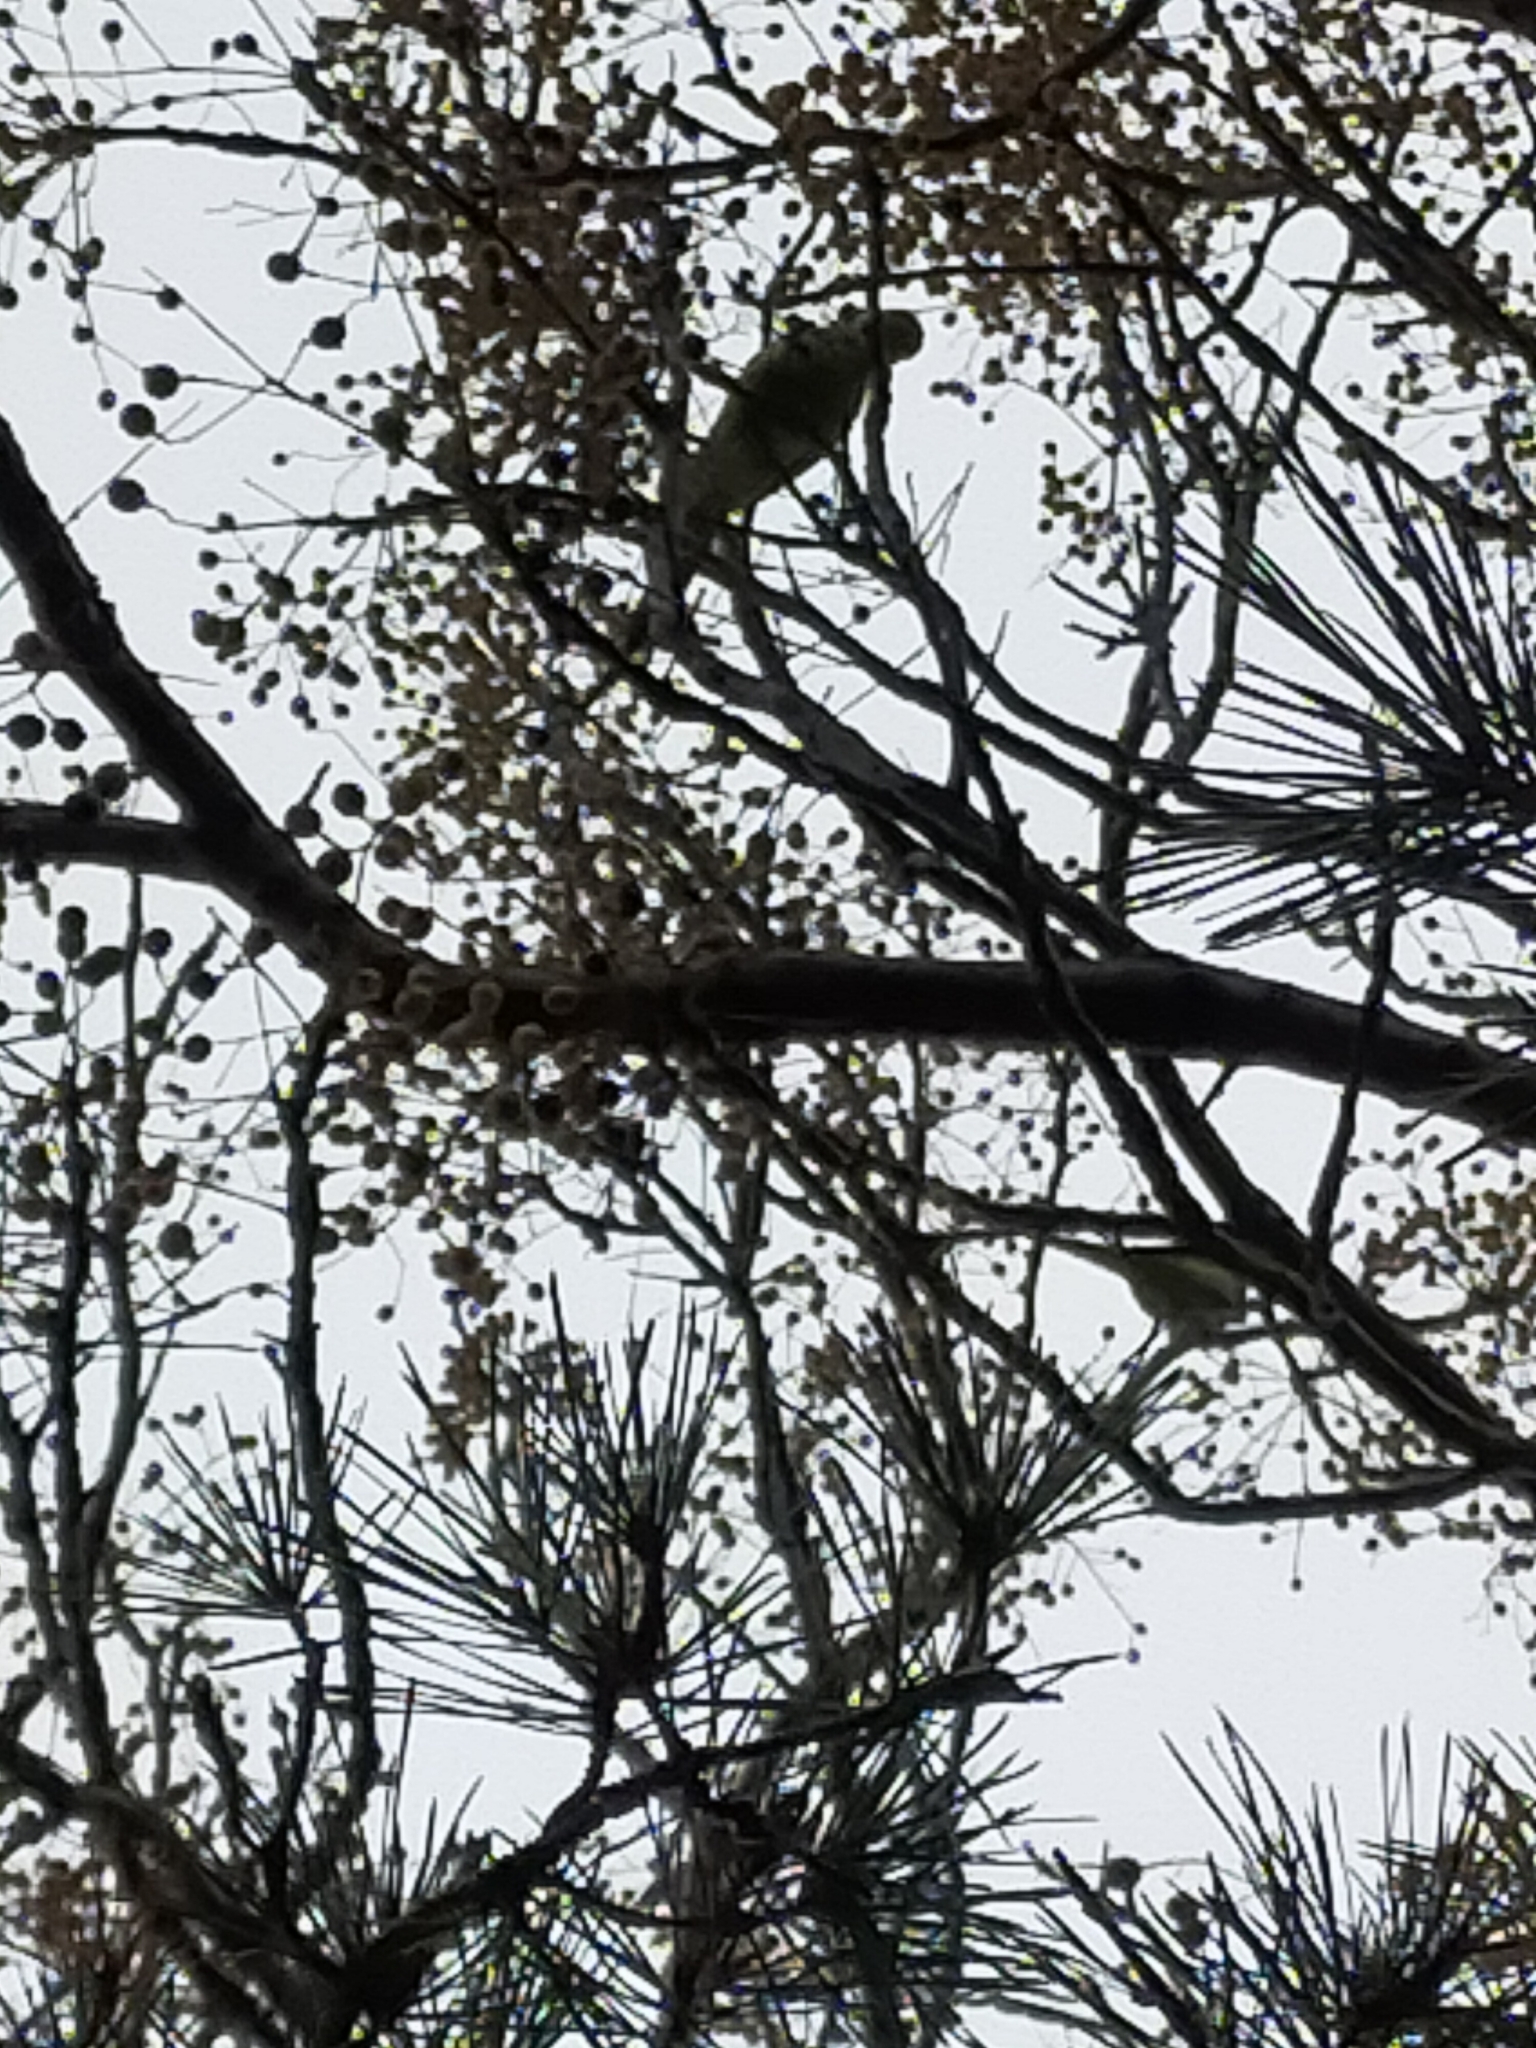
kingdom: Animalia
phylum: Chordata
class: Aves
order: Psittaciformes
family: Psittacidae
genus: Psittacula
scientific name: Psittacula krameri
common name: Rose-ringed parakeet
